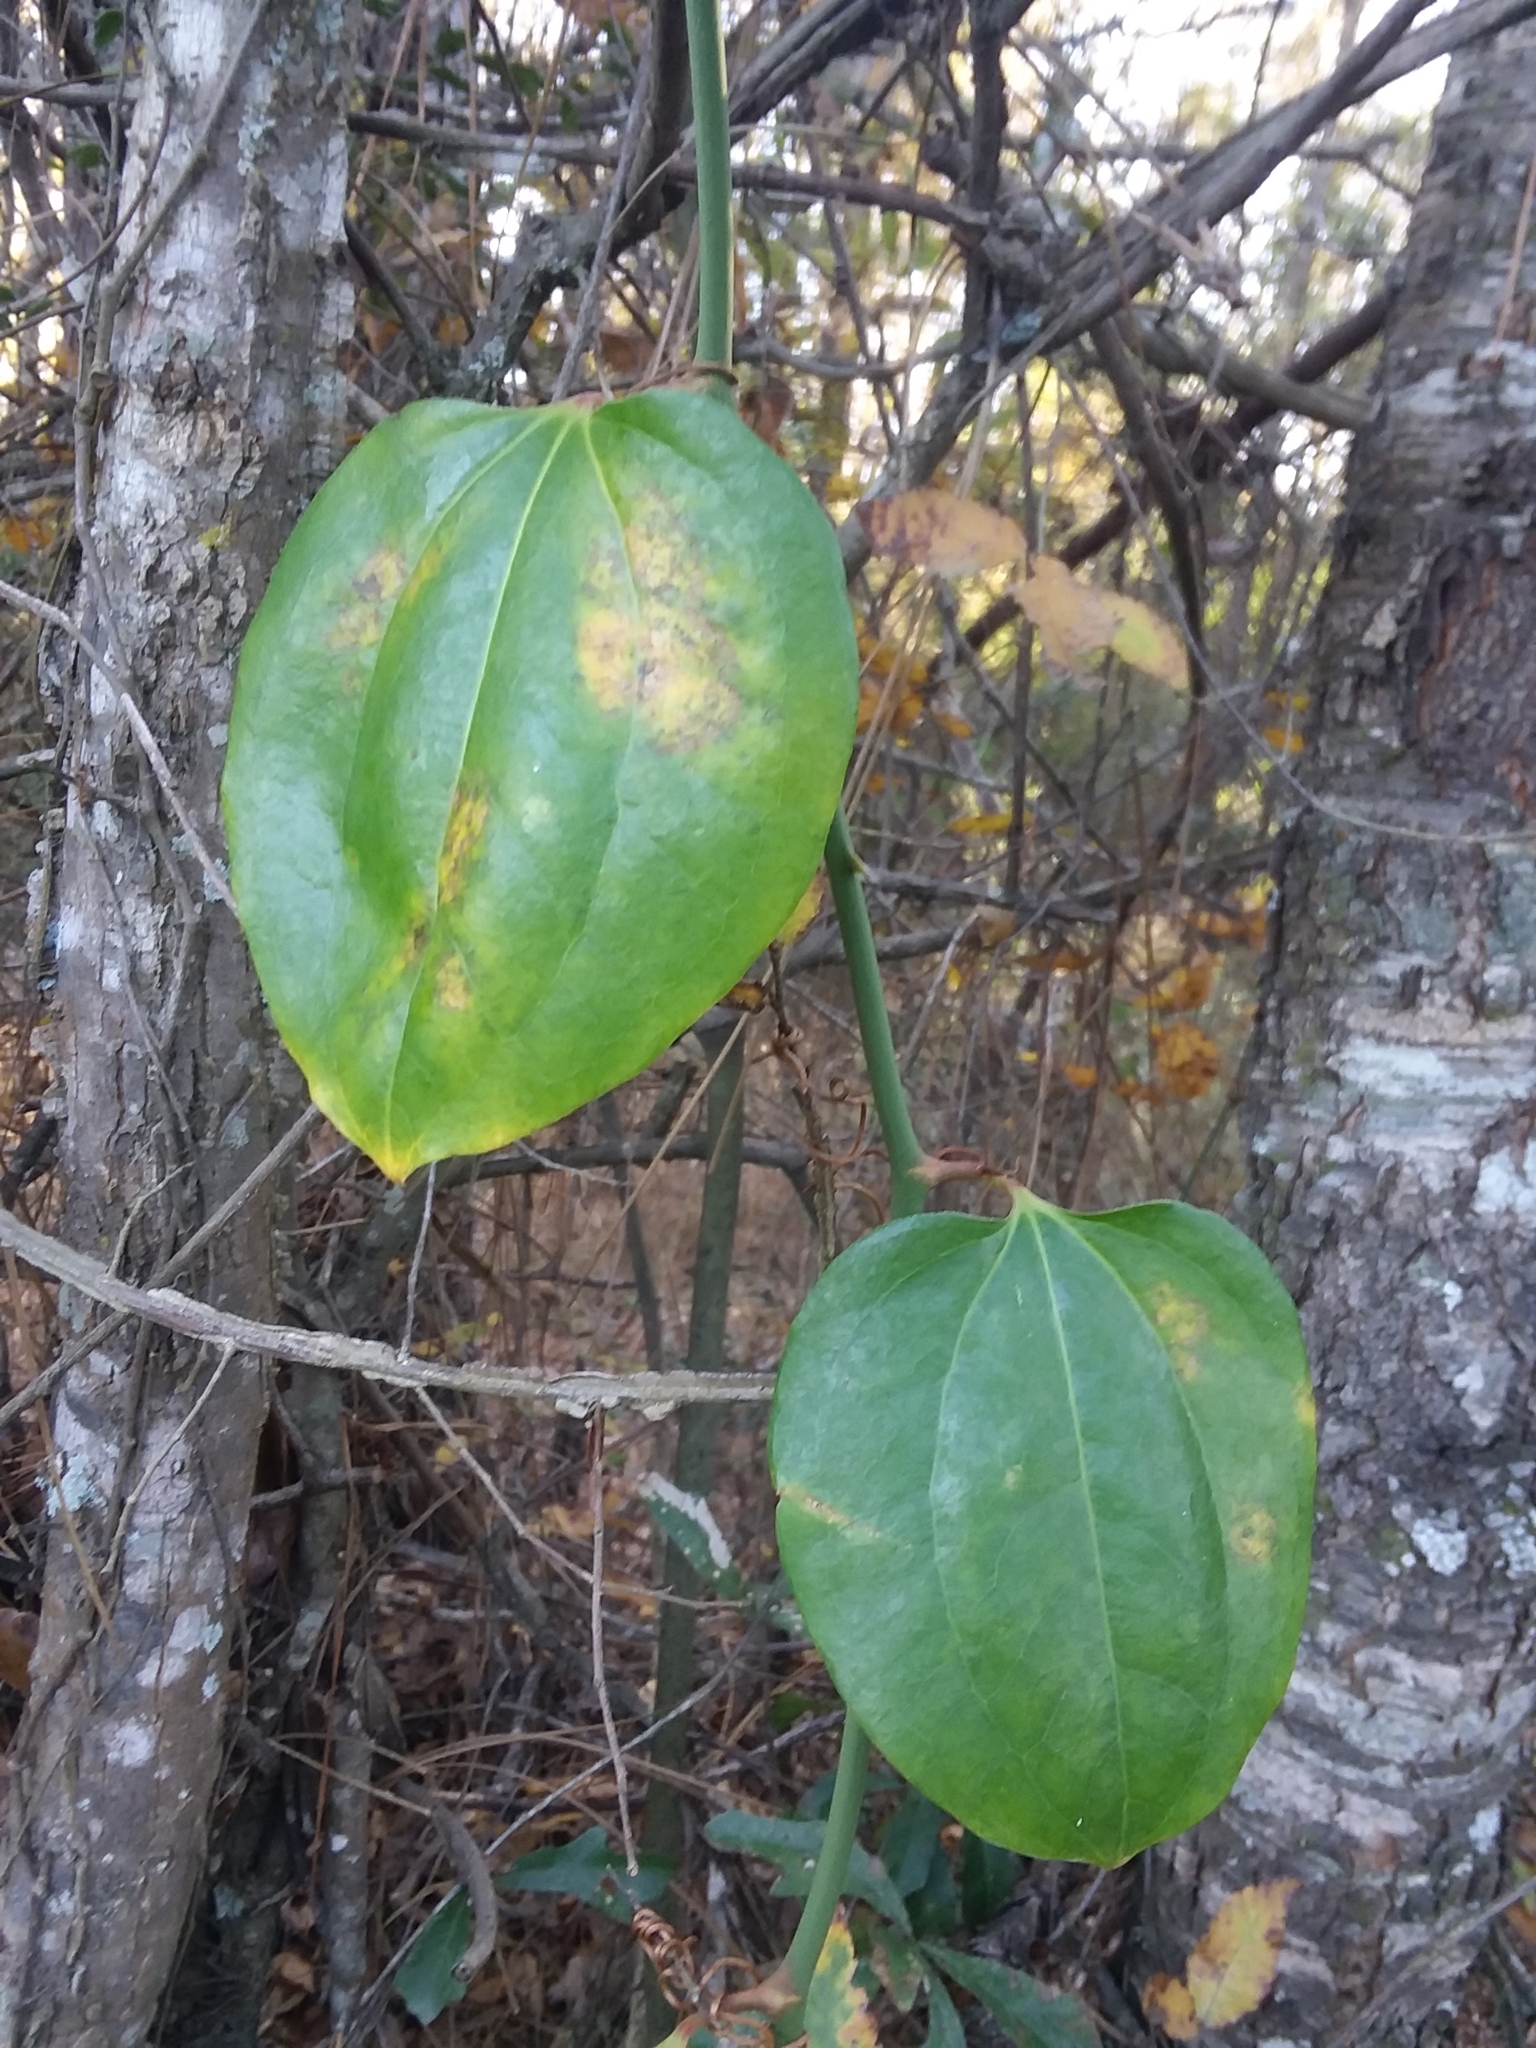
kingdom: Plantae
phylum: Tracheophyta
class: Liliopsida
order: Liliales
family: Smilacaceae
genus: Smilax
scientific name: Smilax rotundifolia
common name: Bullbriar
